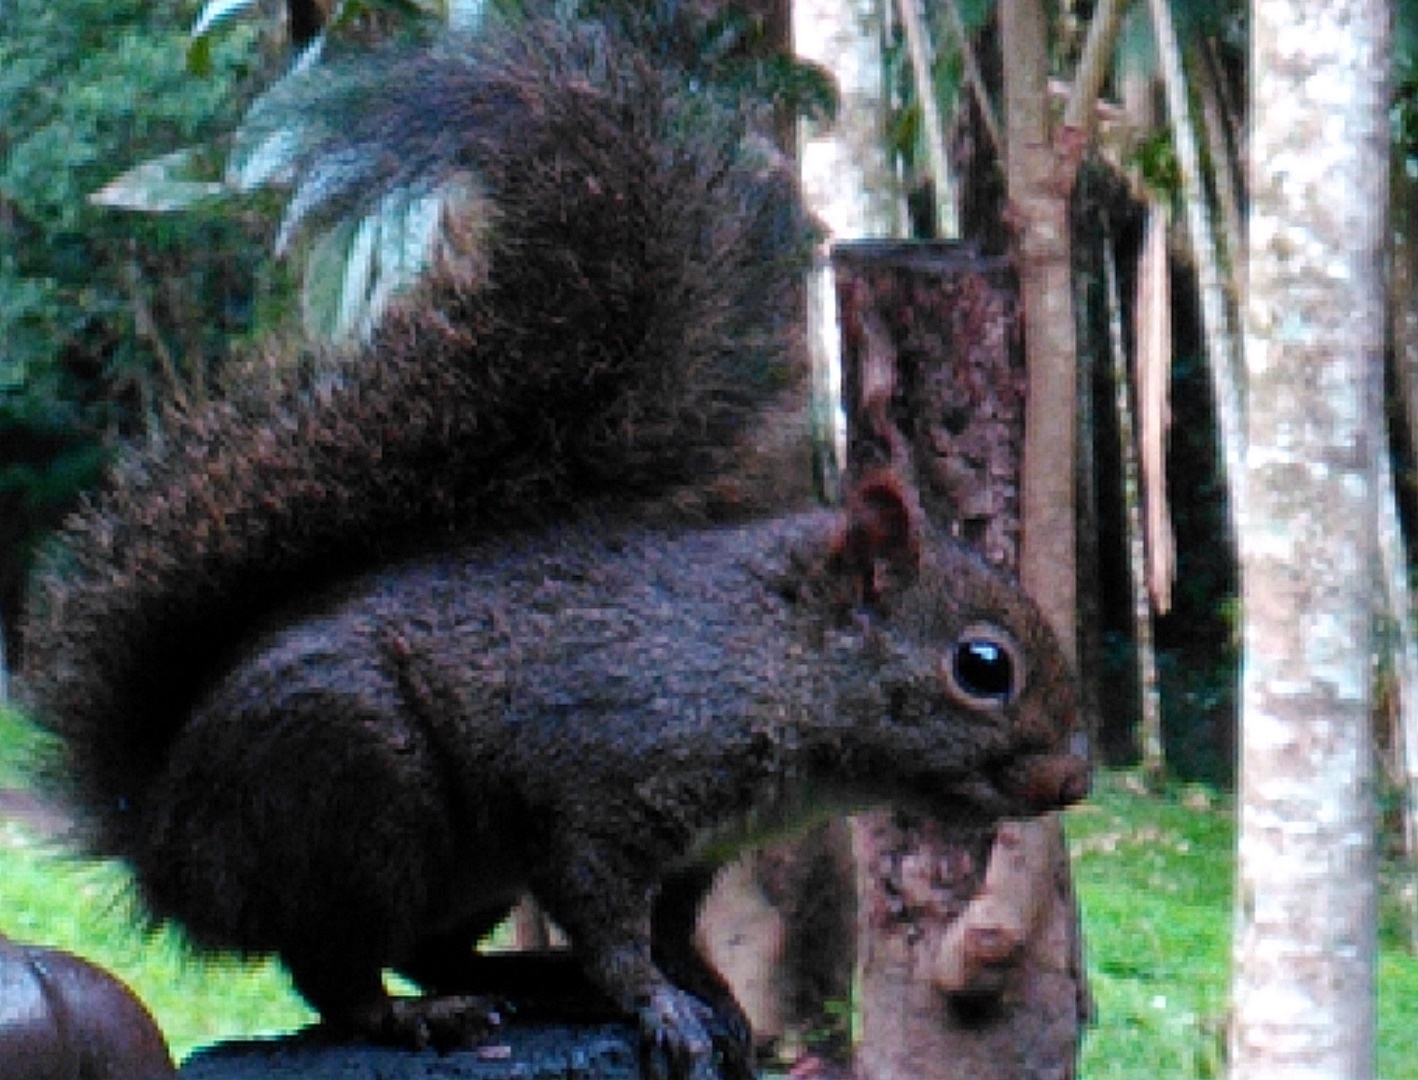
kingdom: Animalia
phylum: Chordata
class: Mammalia
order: Rodentia
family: Sciuridae
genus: Sciurus
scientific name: Sciurus aestuans
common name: Guianan squirrel
